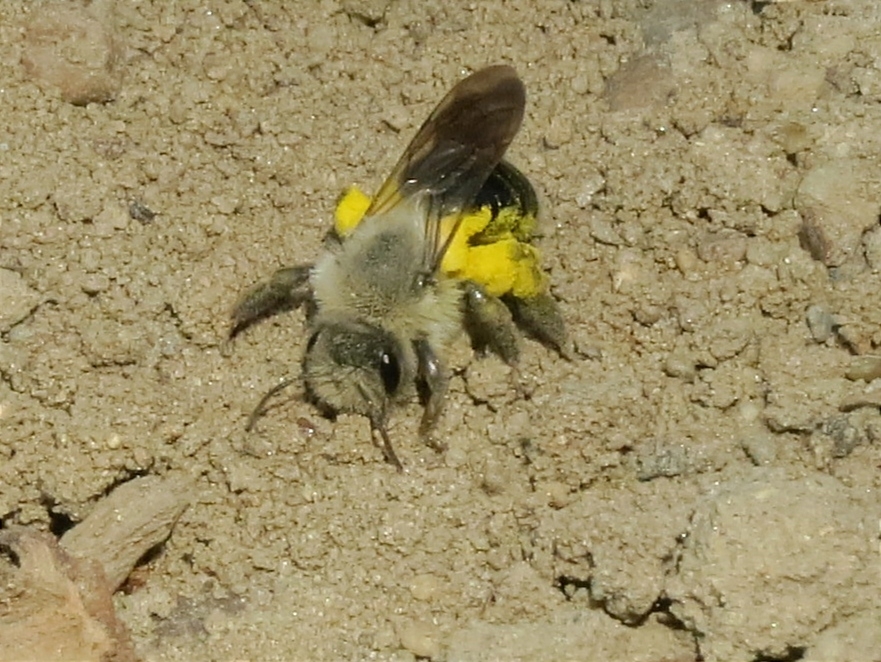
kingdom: Animalia
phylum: Arthropoda
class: Insecta
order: Hymenoptera
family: Andrenidae
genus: Andrena
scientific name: Andrena vaga
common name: Grey-backed mining bee
